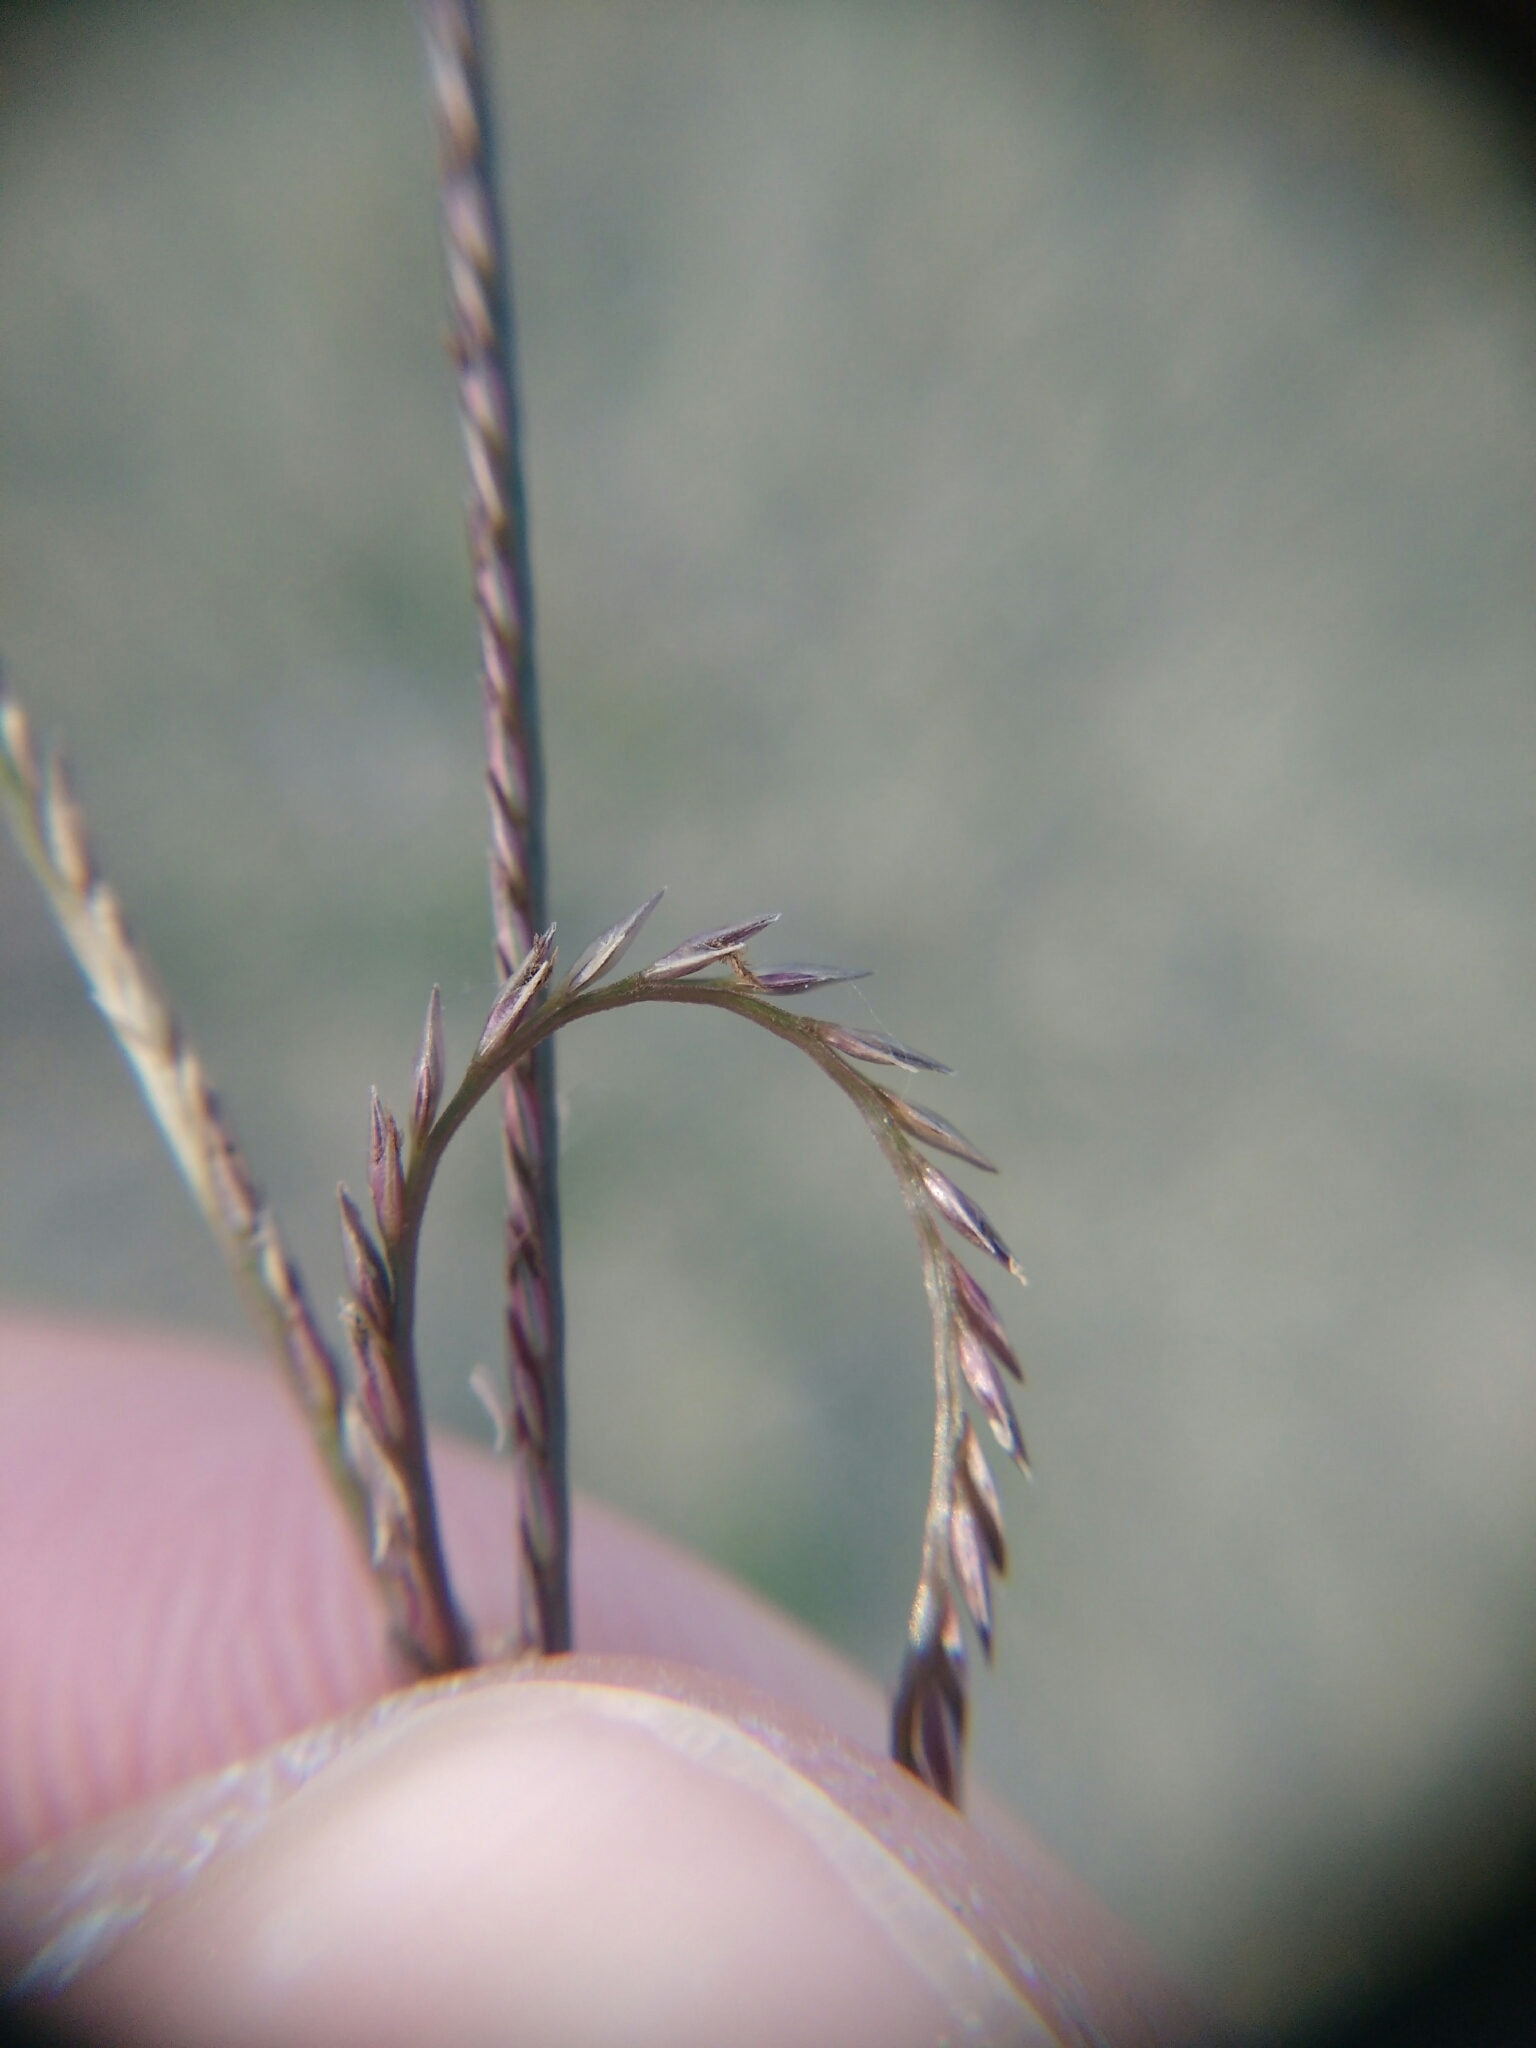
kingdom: Plantae
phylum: Tracheophyta
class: Liliopsida
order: Poales
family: Poaceae
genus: Cynodon
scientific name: Cynodon dactylon
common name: Bermuda grass
